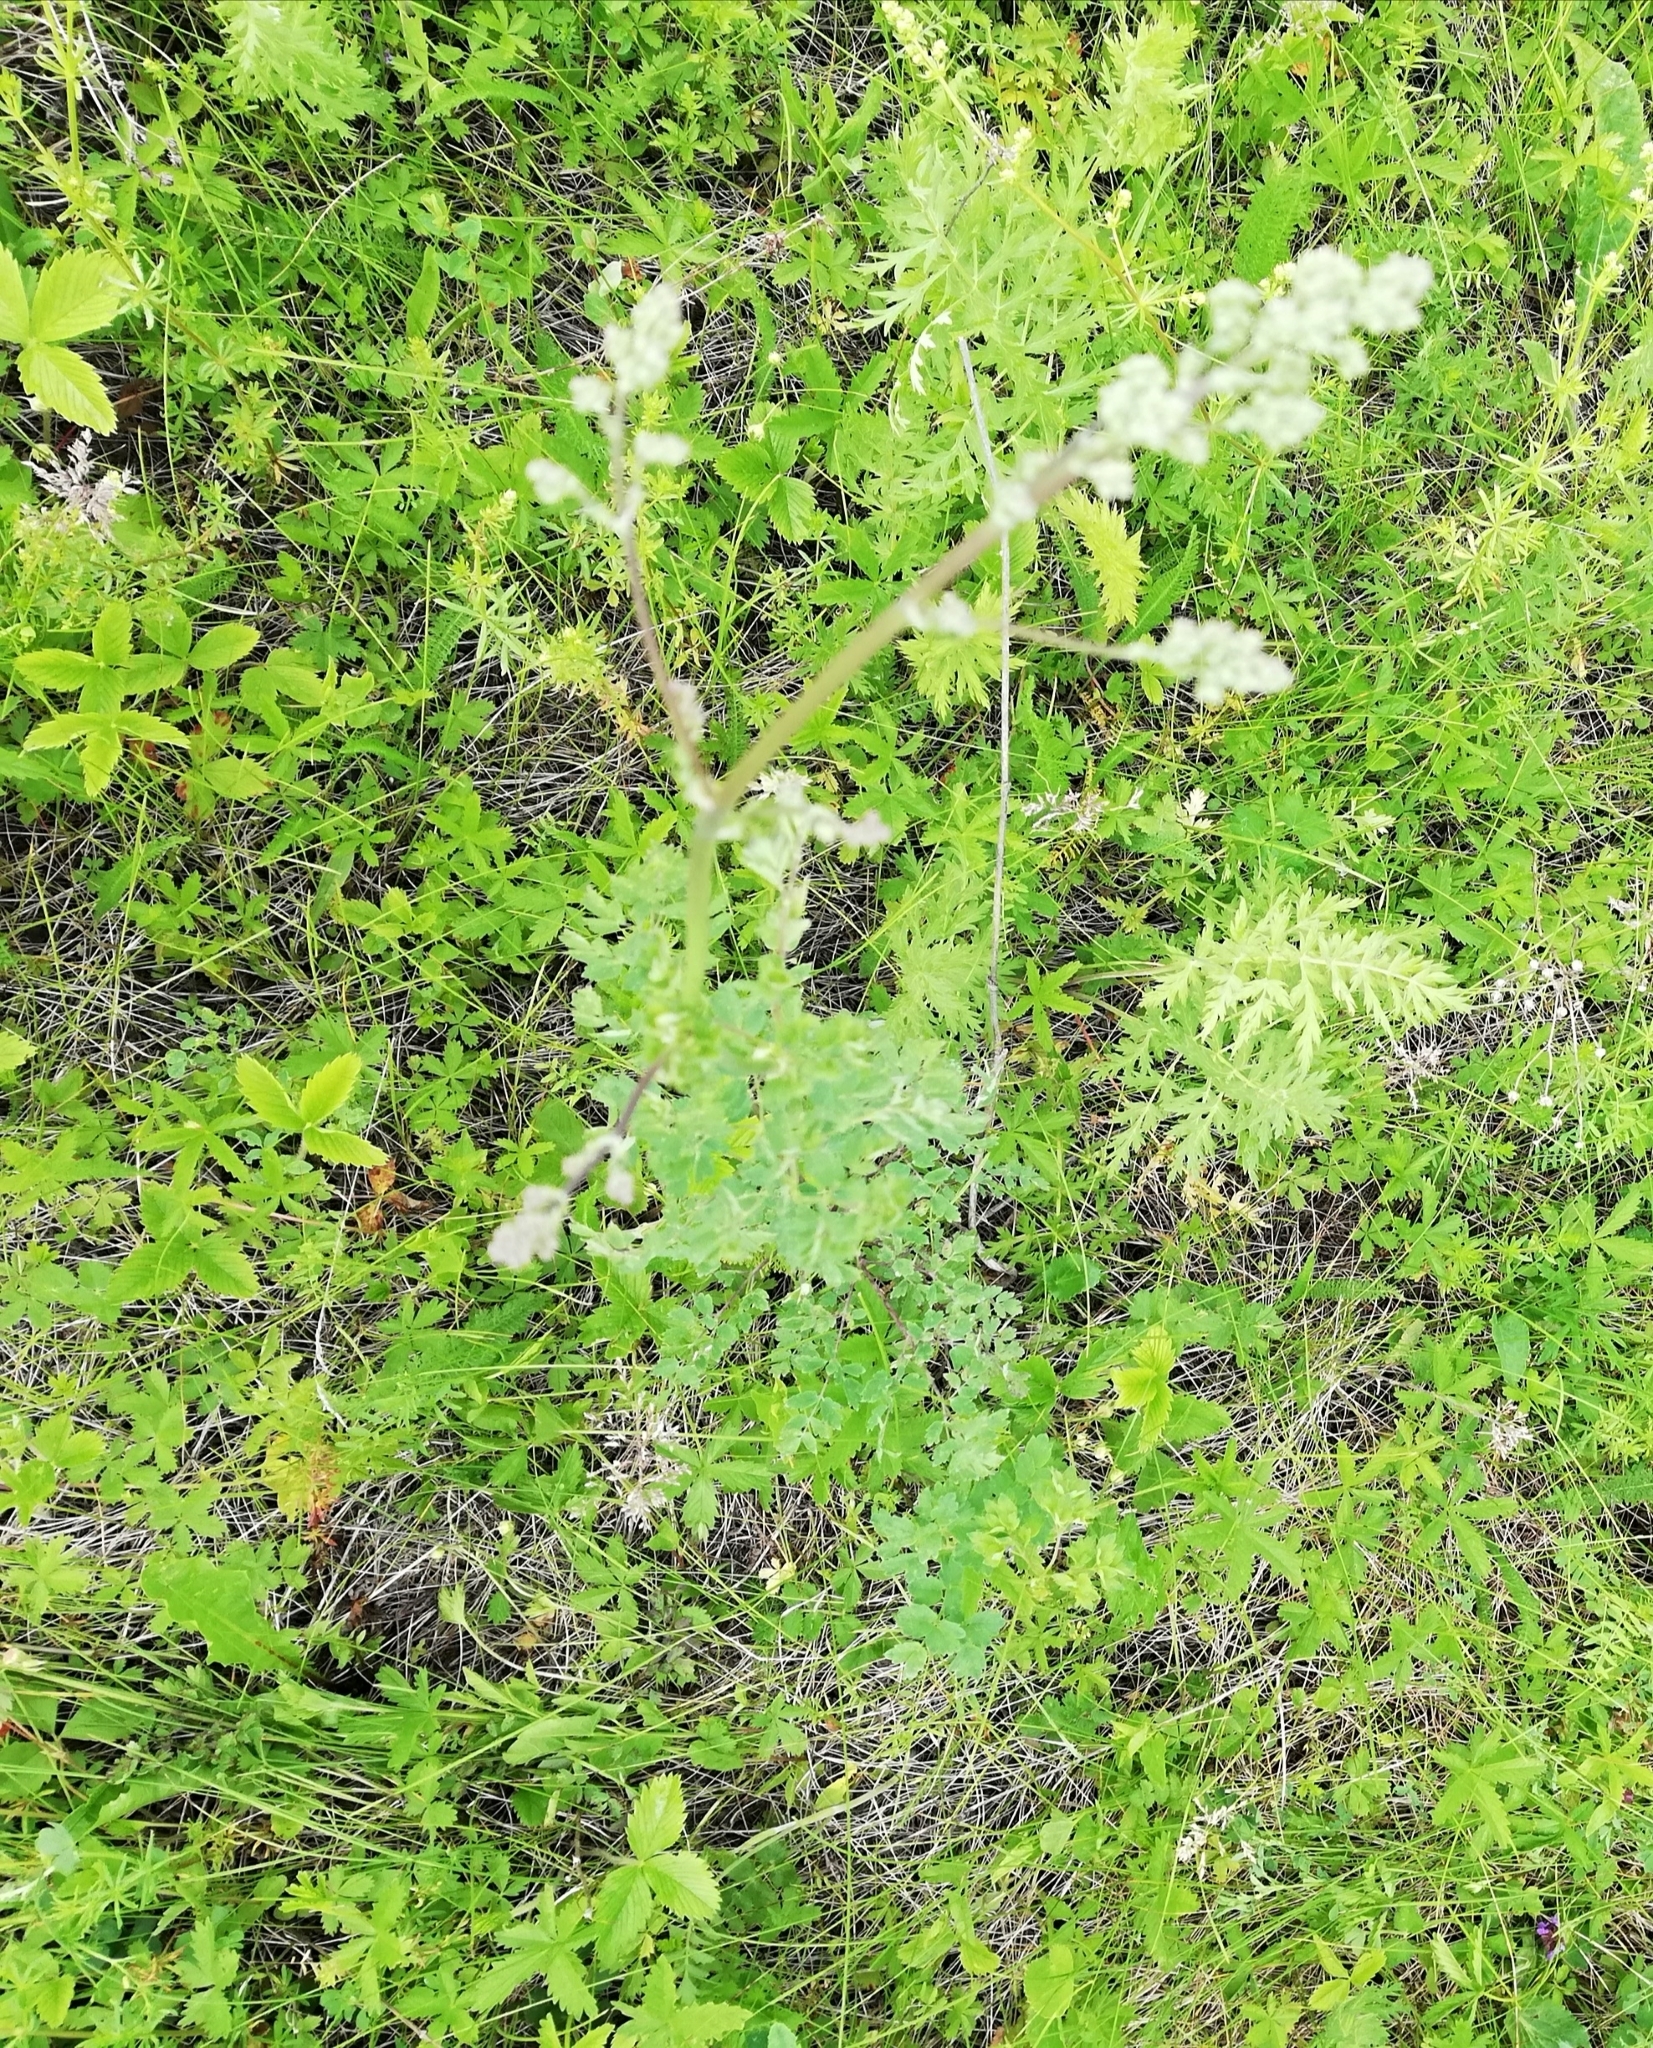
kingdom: Plantae
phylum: Tracheophyta
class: Magnoliopsida
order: Ranunculales
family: Ranunculaceae
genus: Thalictrum
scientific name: Thalictrum minus
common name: Lesser meadow-rue
